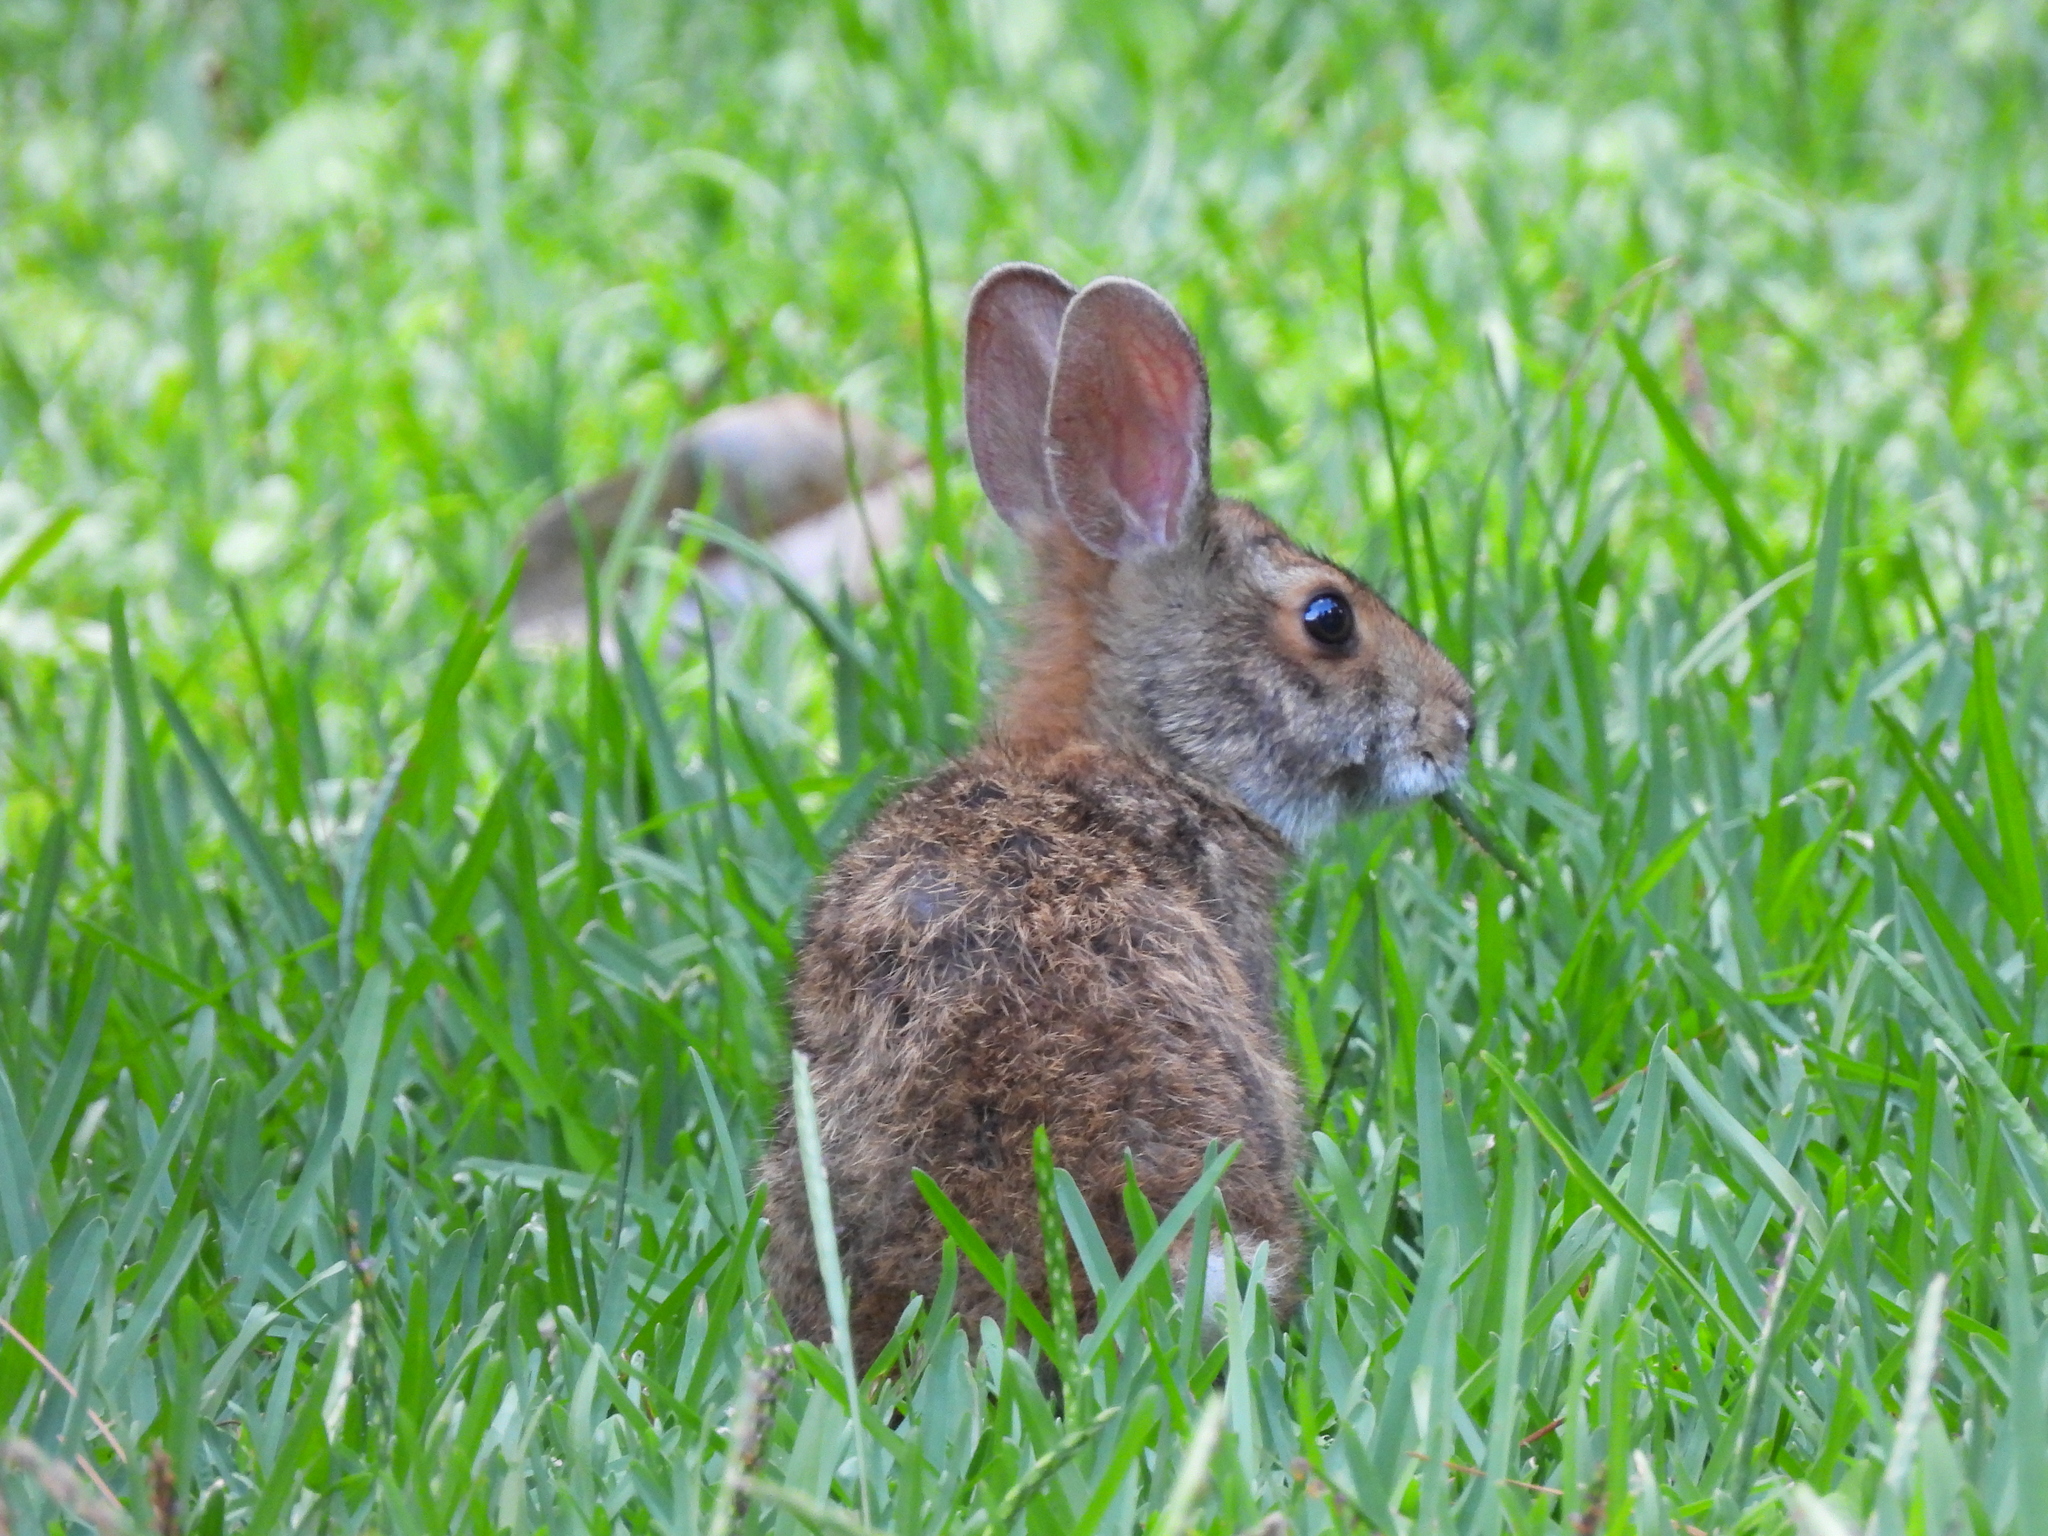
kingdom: Animalia
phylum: Chordata
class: Mammalia
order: Lagomorpha
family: Leporidae
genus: Sylvilagus
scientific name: Sylvilagus aquaticus
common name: Swamp rabbit
